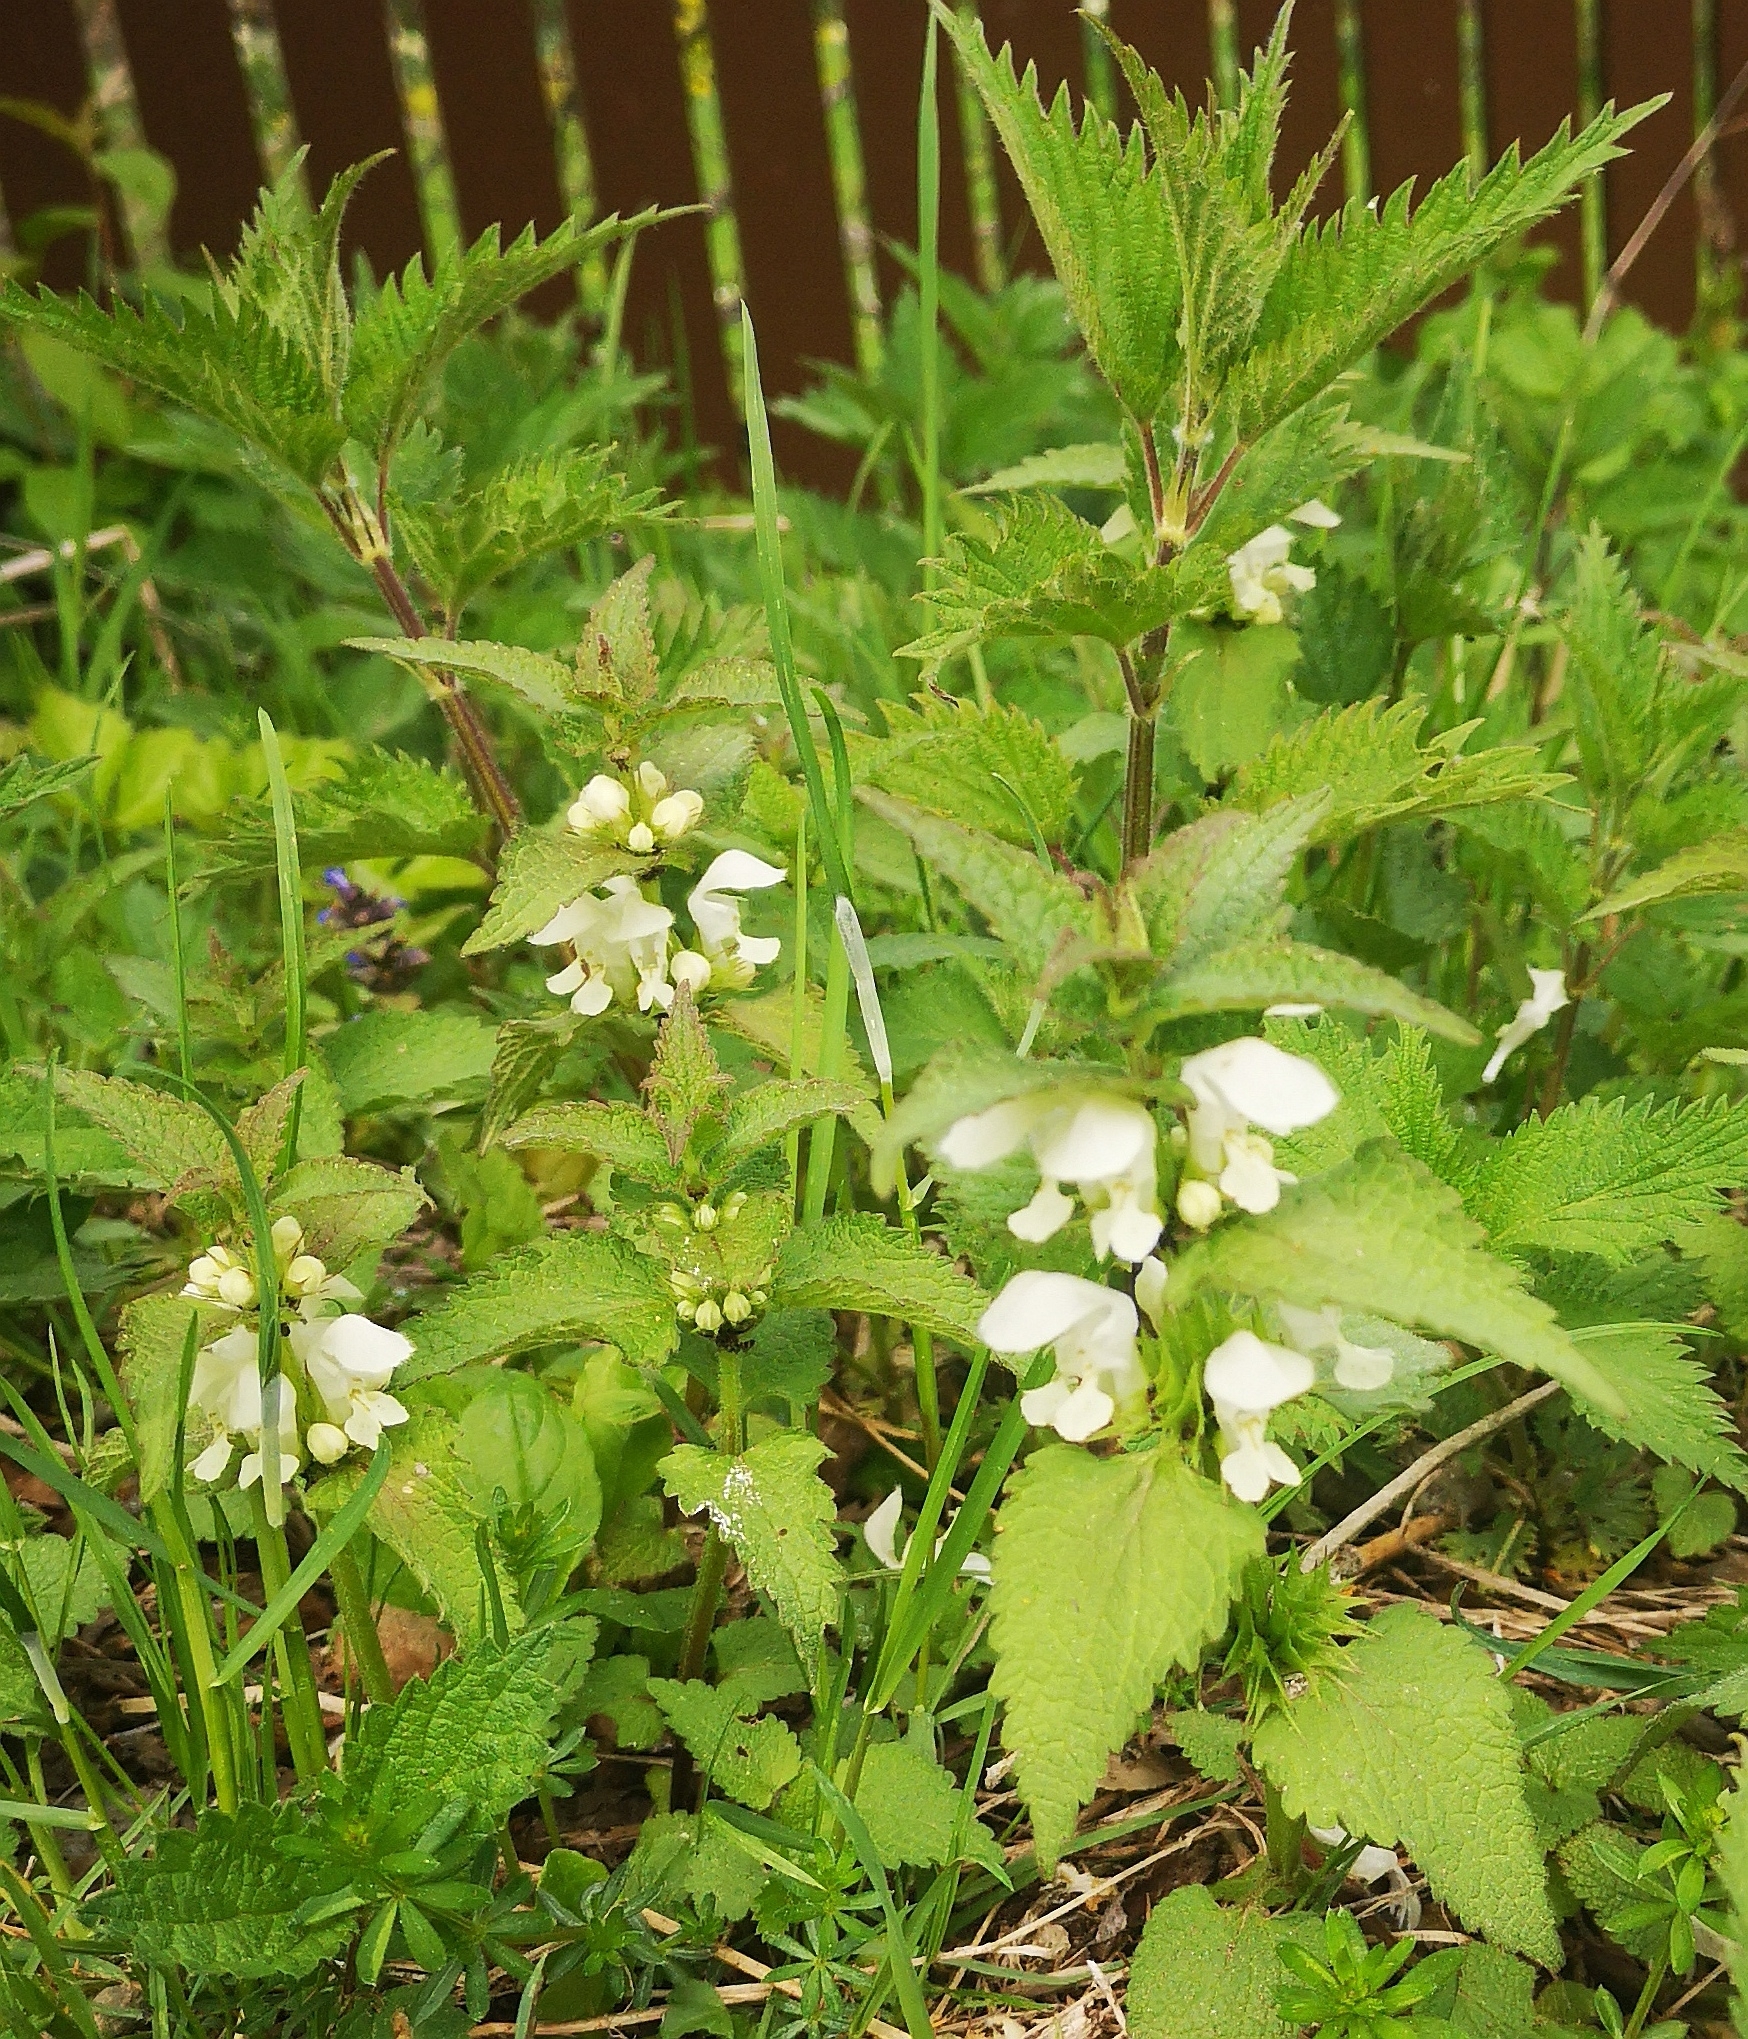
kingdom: Plantae
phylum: Tracheophyta
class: Magnoliopsida
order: Lamiales
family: Lamiaceae
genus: Lamium
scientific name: Lamium album
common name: White dead-nettle
